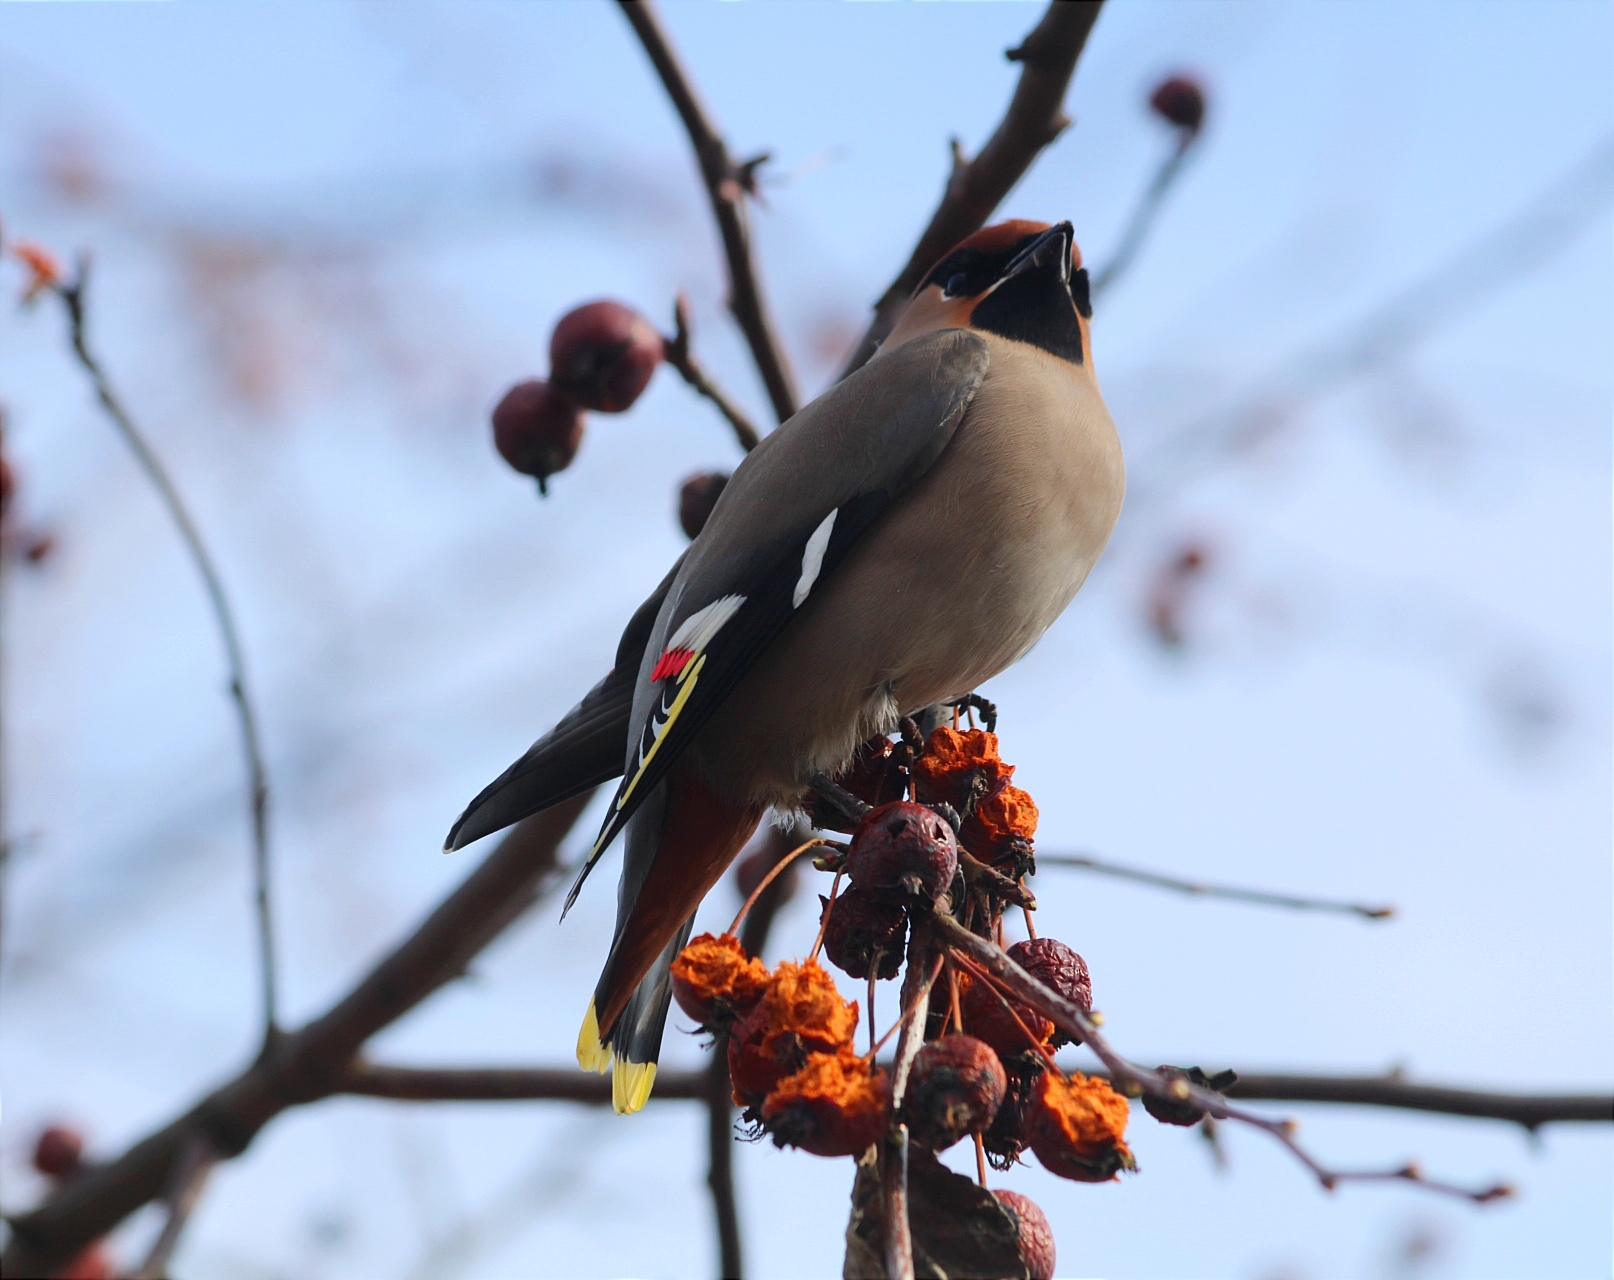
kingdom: Animalia
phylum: Chordata
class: Aves
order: Passeriformes
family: Bombycillidae
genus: Bombycilla
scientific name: Bombycilla garrulus
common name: Bohemian waxwing
